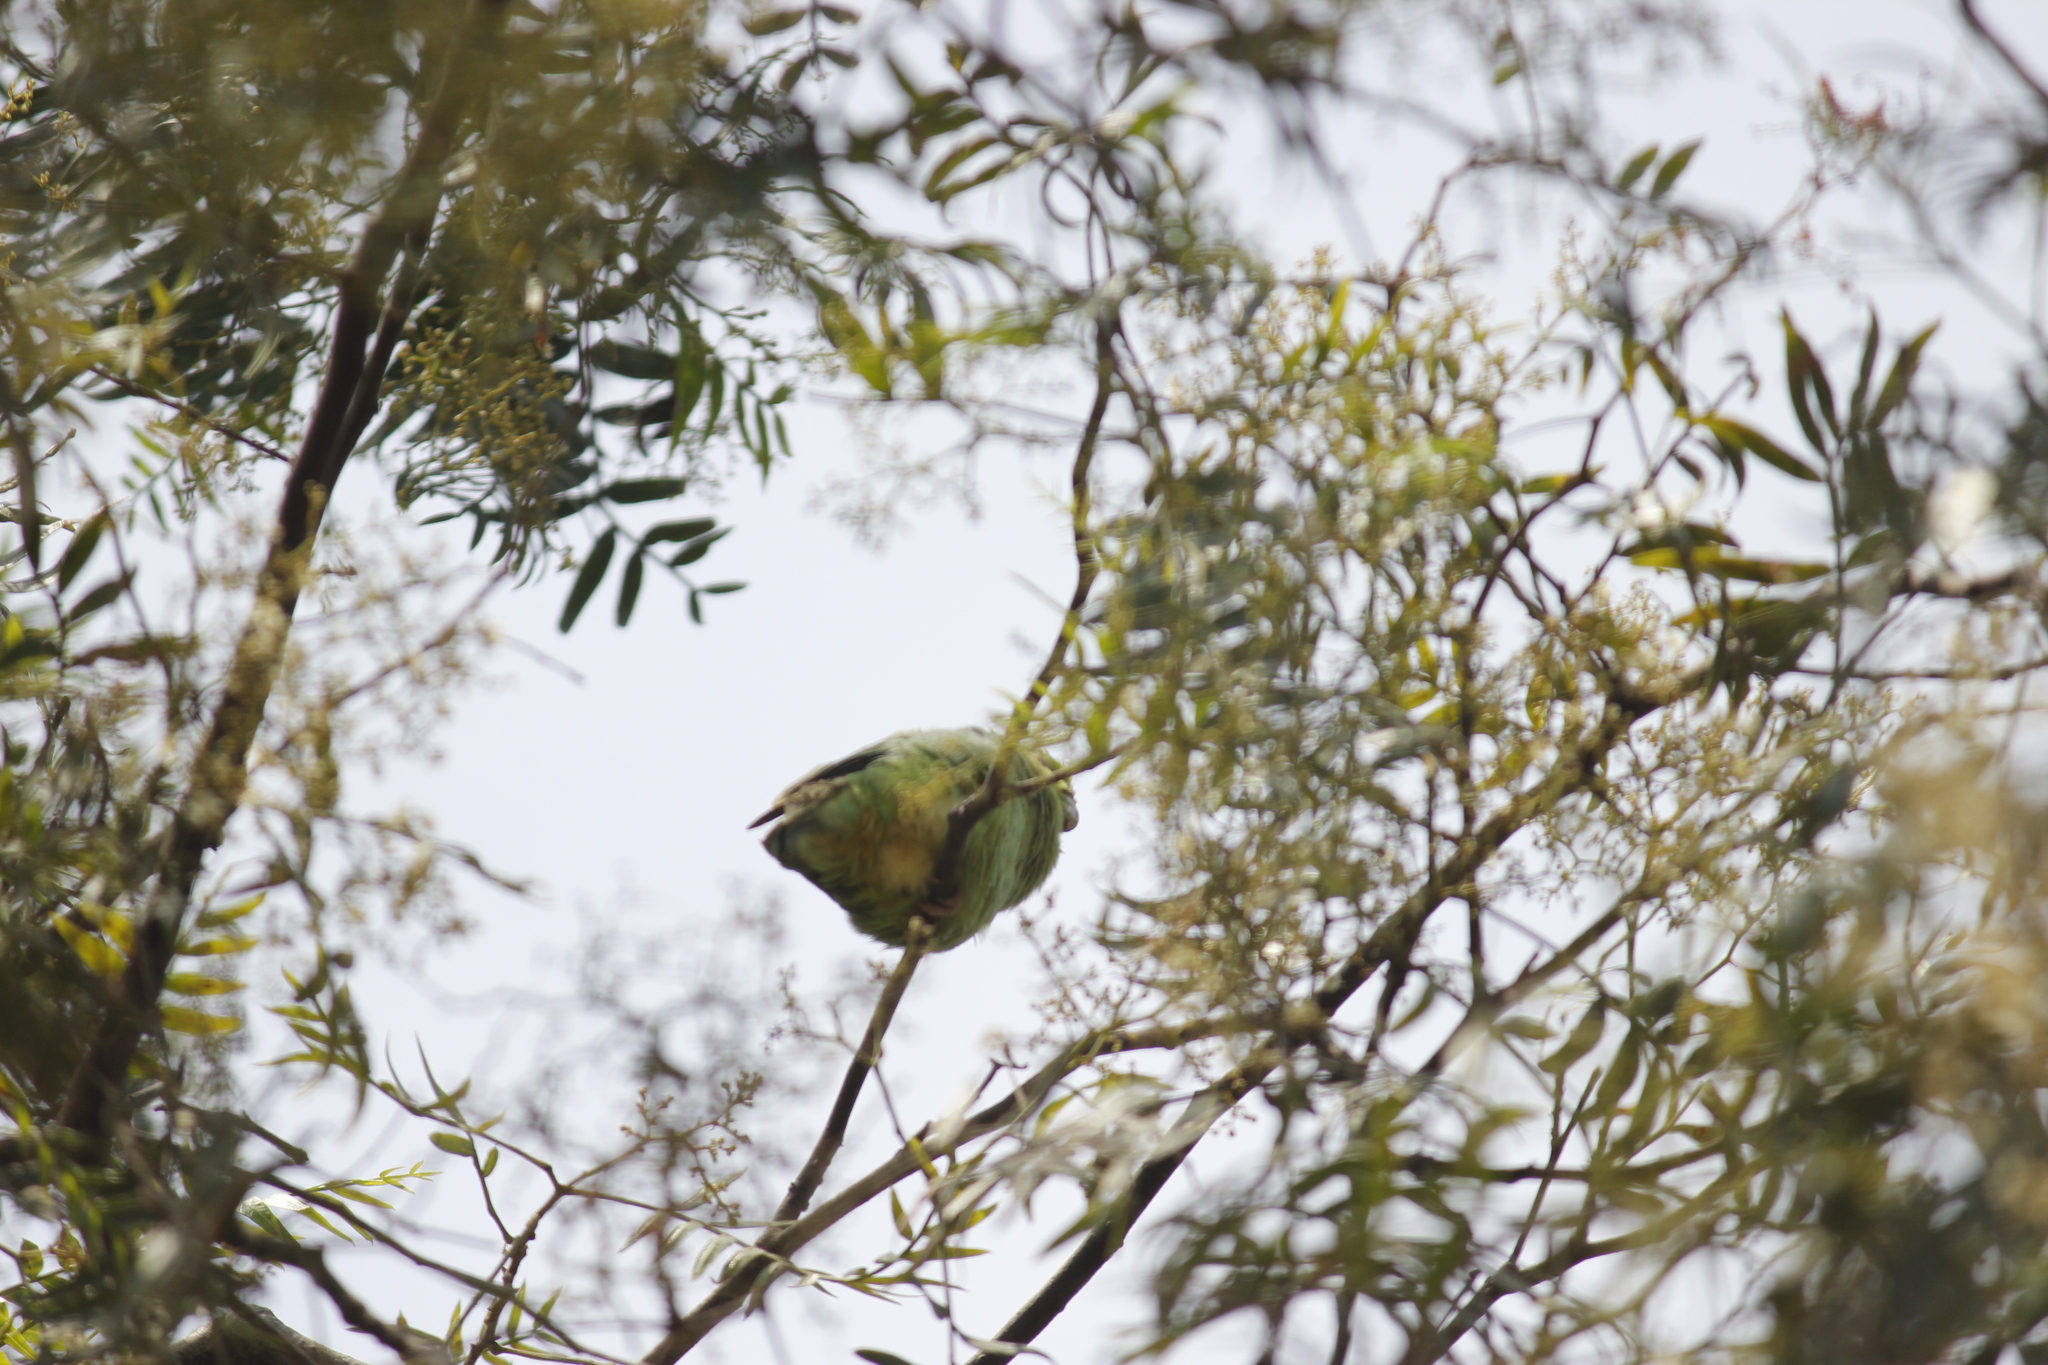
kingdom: Animalia
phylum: Chordata
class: Aves
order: Psittaciformes
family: Psittacidae
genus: Forpus
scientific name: Forpus coelestis
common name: Pacific parrotlet
